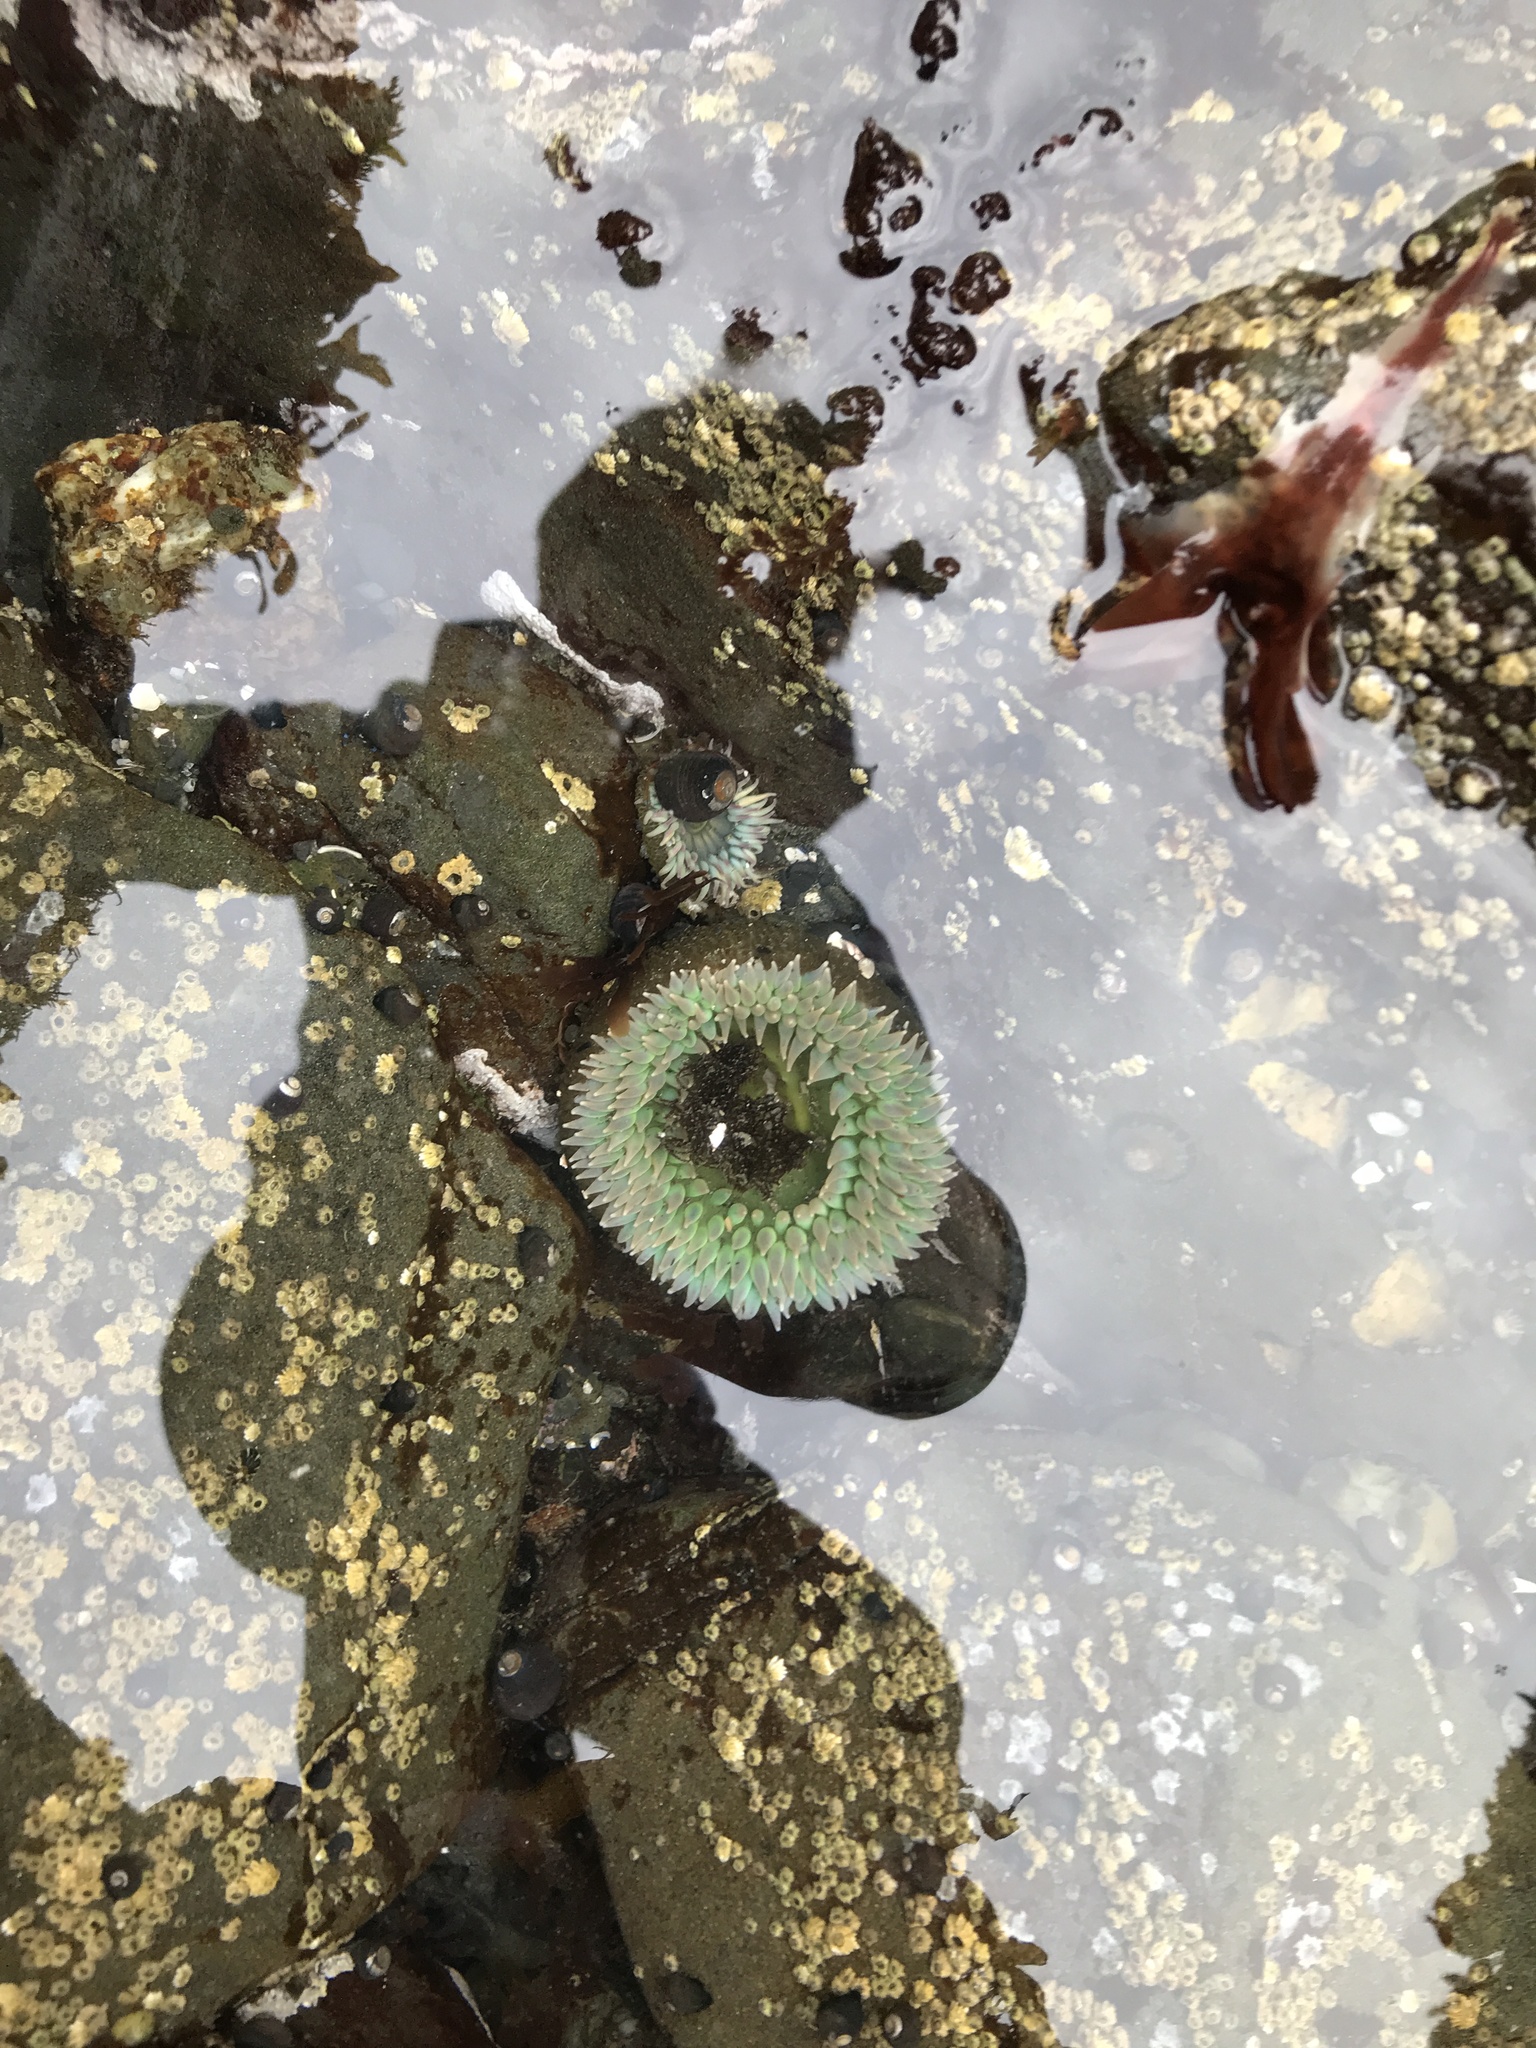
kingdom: Animalia
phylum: Cnidaria
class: Anthozoa
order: Actiniaria
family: Actiniidae
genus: Anthopleura
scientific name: Anthopleura xanthogrammica
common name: Giant green anemone
